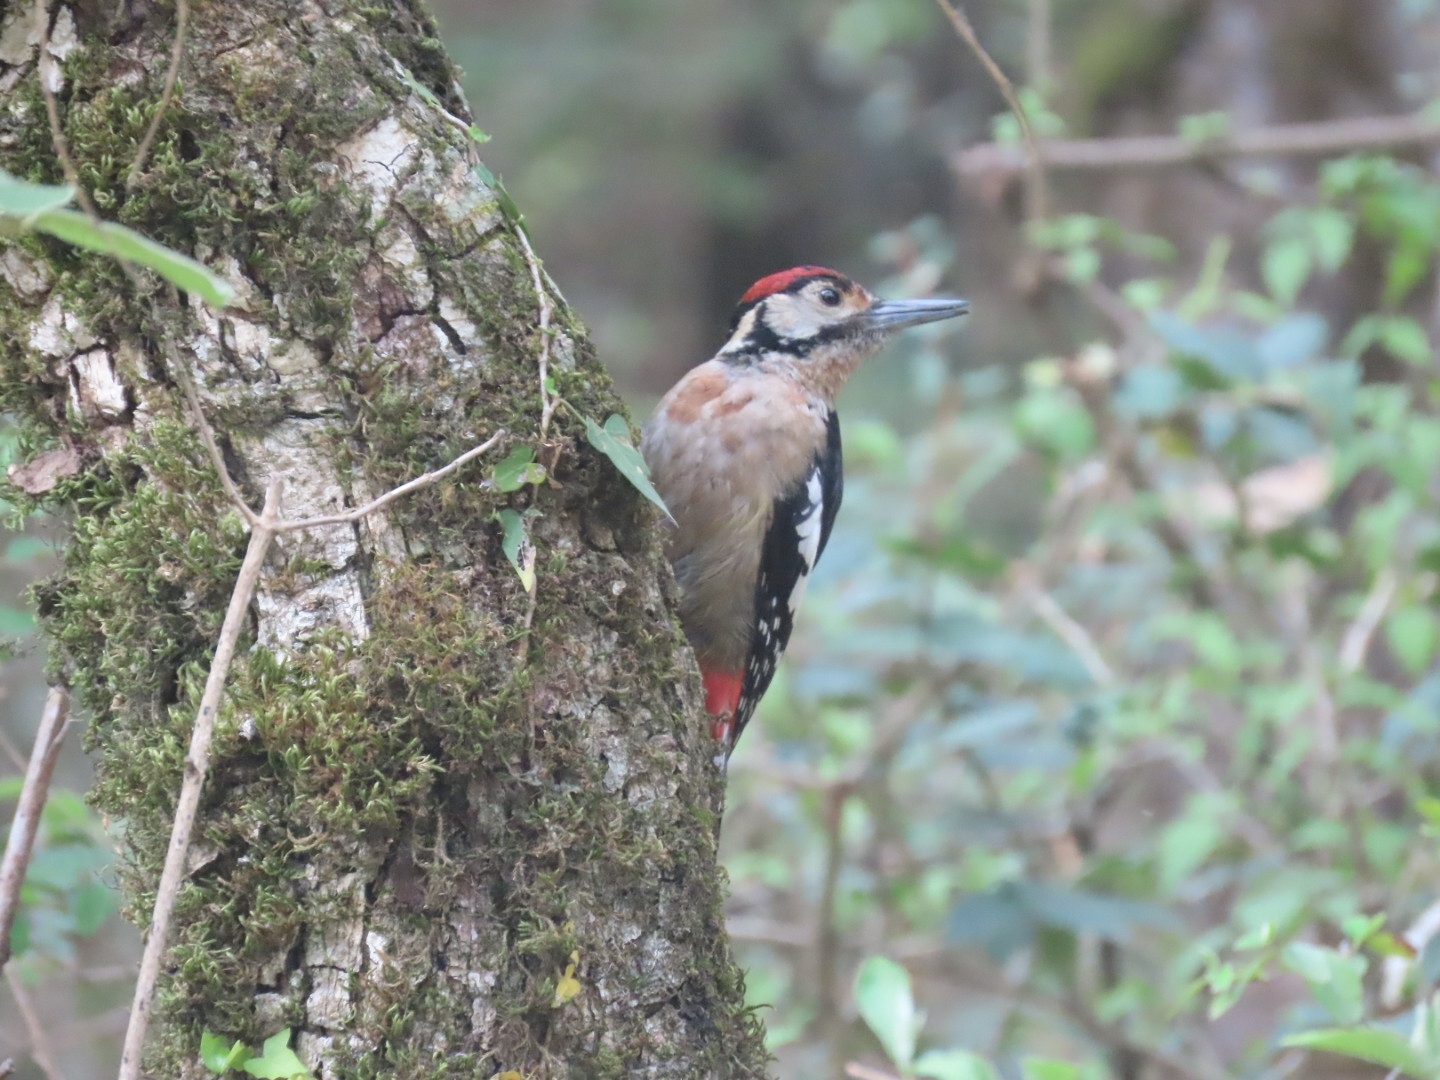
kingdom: Animalia
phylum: Chordata
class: Aves
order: Piciformes
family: Picidae
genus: Dendrocopos
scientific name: Dendrocopos himalayensis
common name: Himalayan woodpecker
